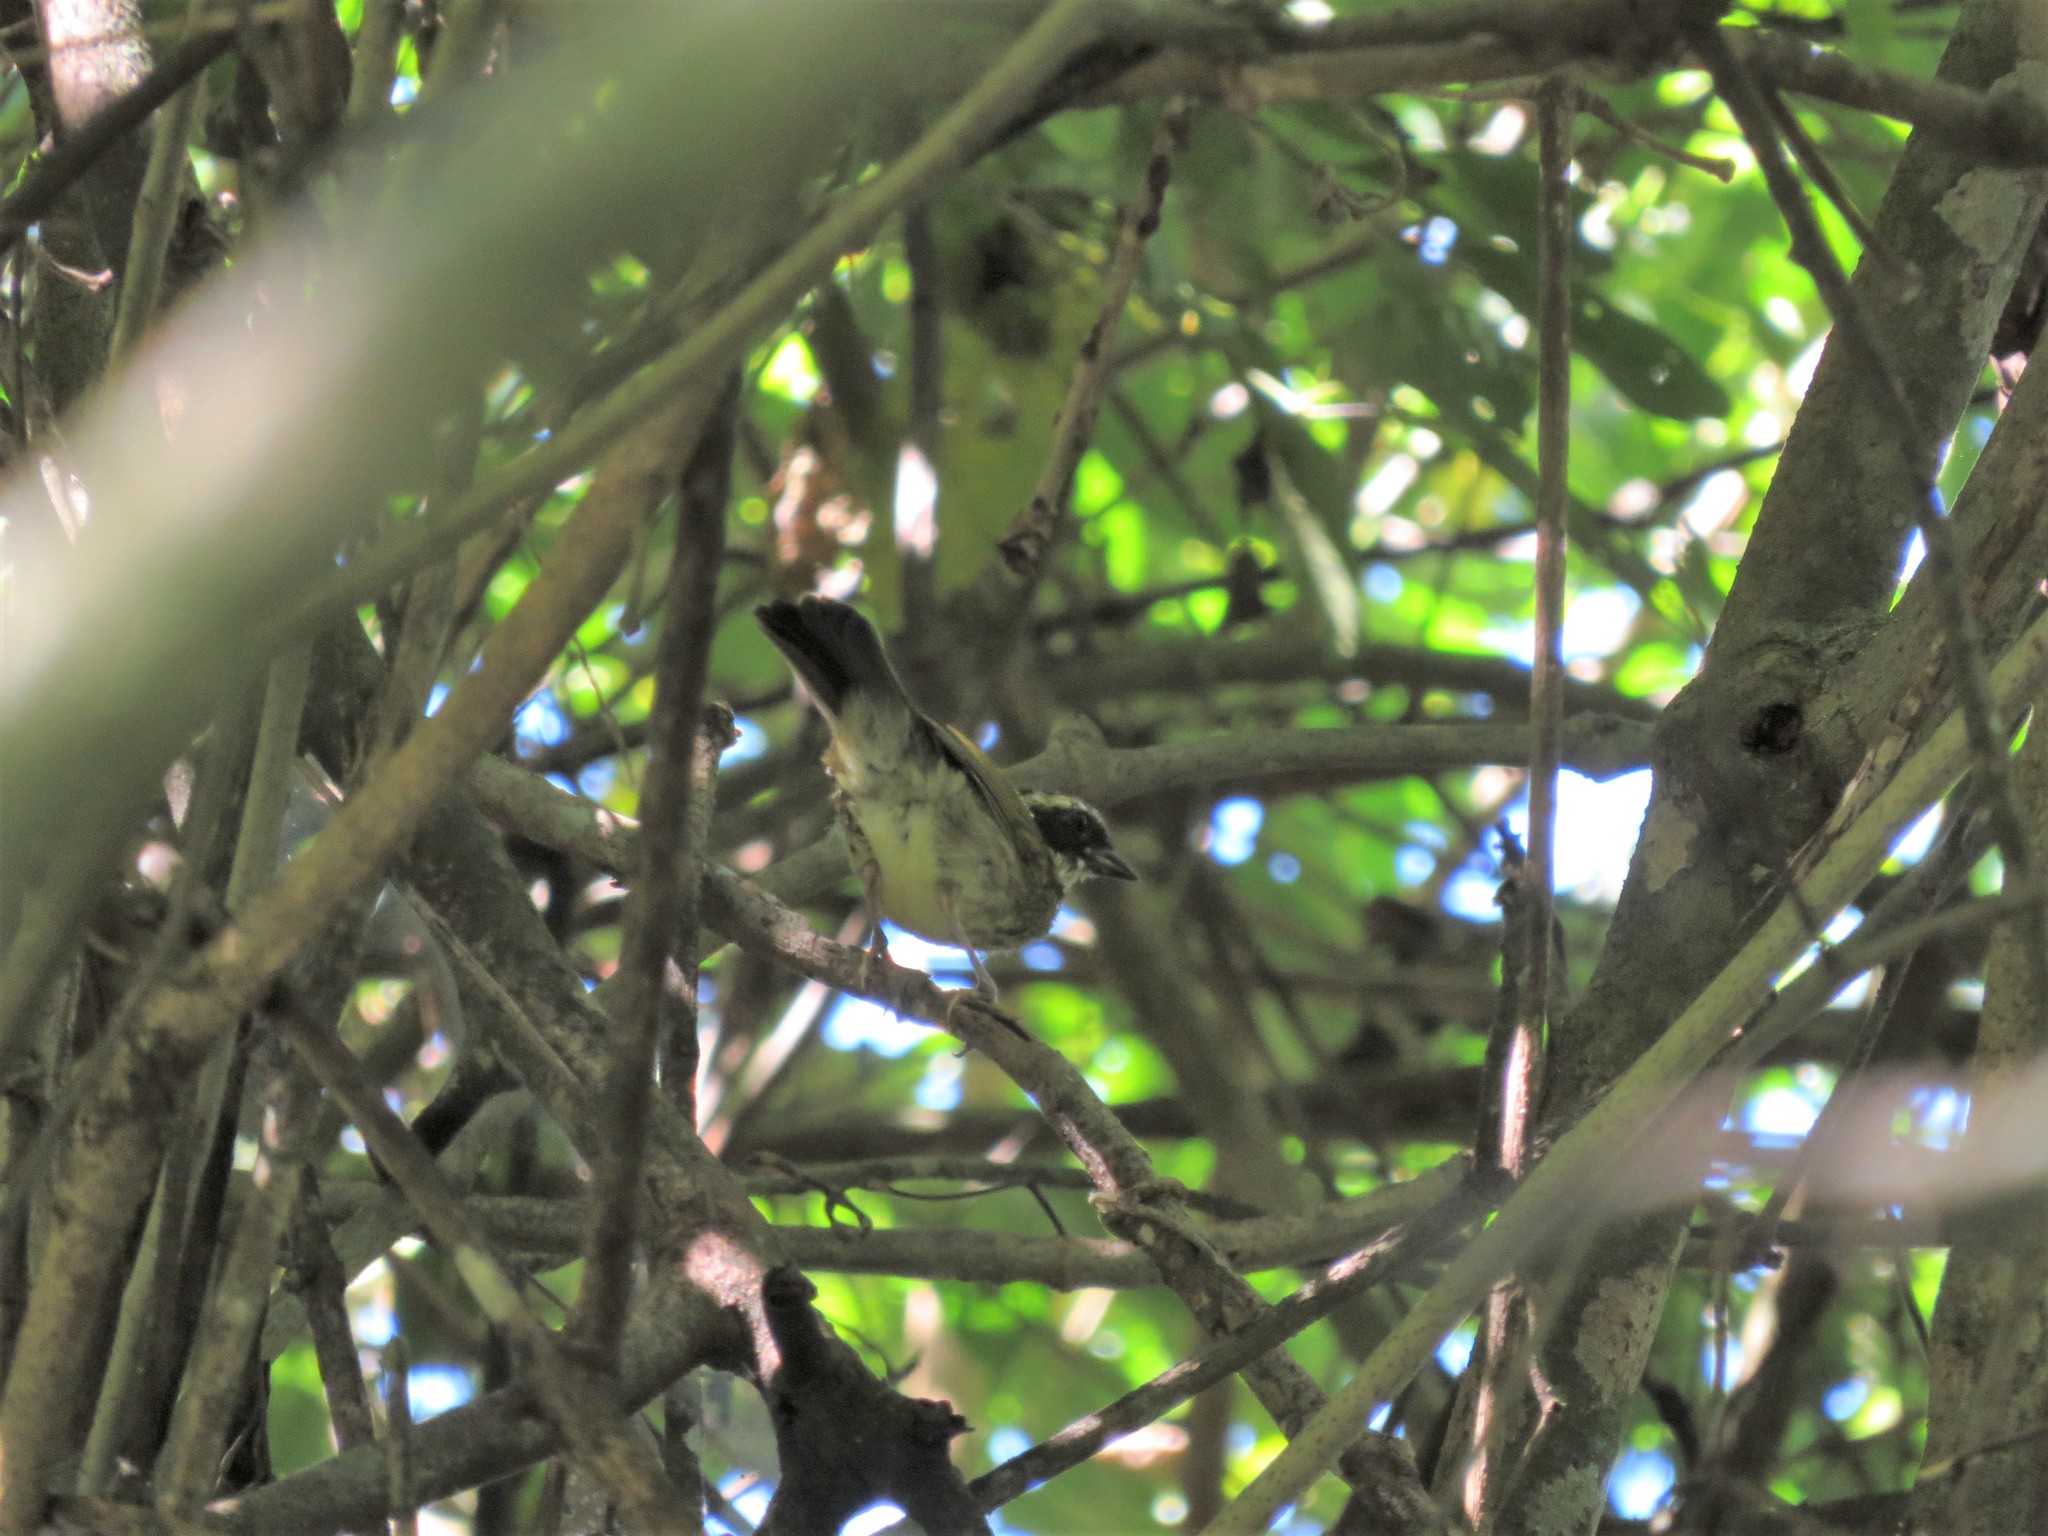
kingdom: Animalia
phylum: Chordata
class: Aves
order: Passeriformes
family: Passerellidae
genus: Arremon
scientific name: Arremon taciturnus
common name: Pectoral sparrow
